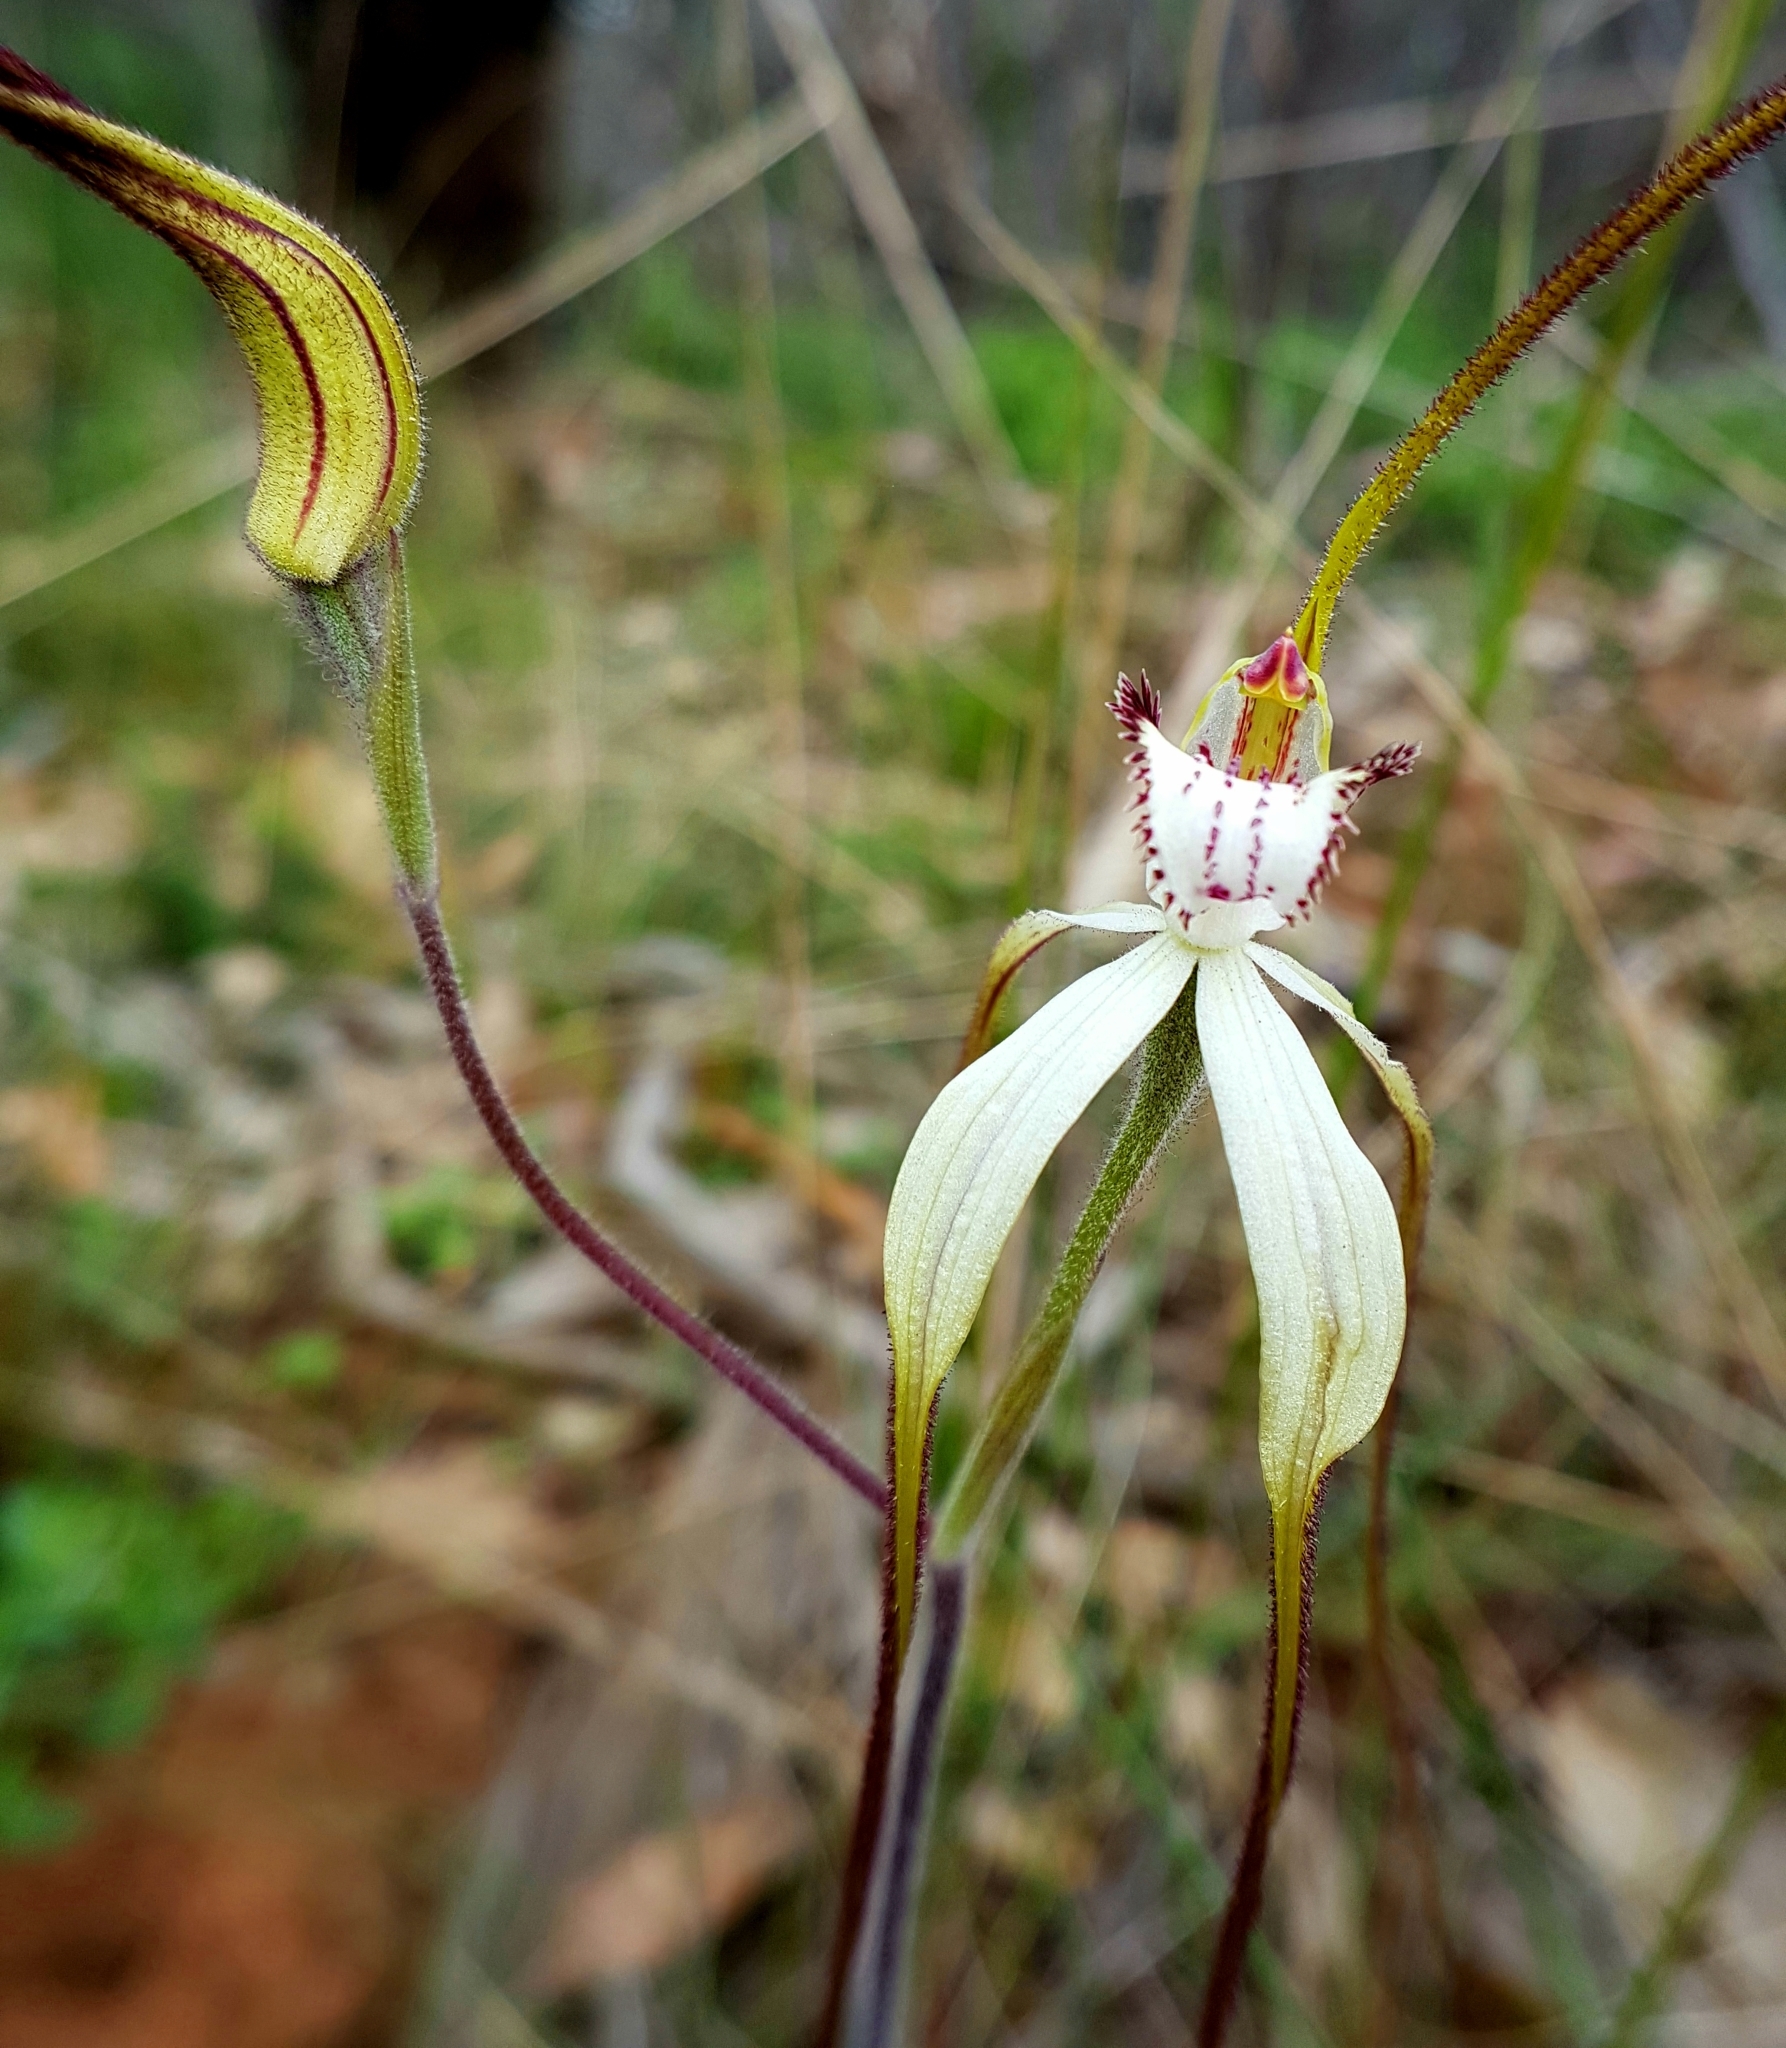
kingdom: Plantae
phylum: Tracheophyta
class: Liliopsida
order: Asparagales
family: Orchidaceae
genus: Caladenia
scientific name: Caladenia venusta
